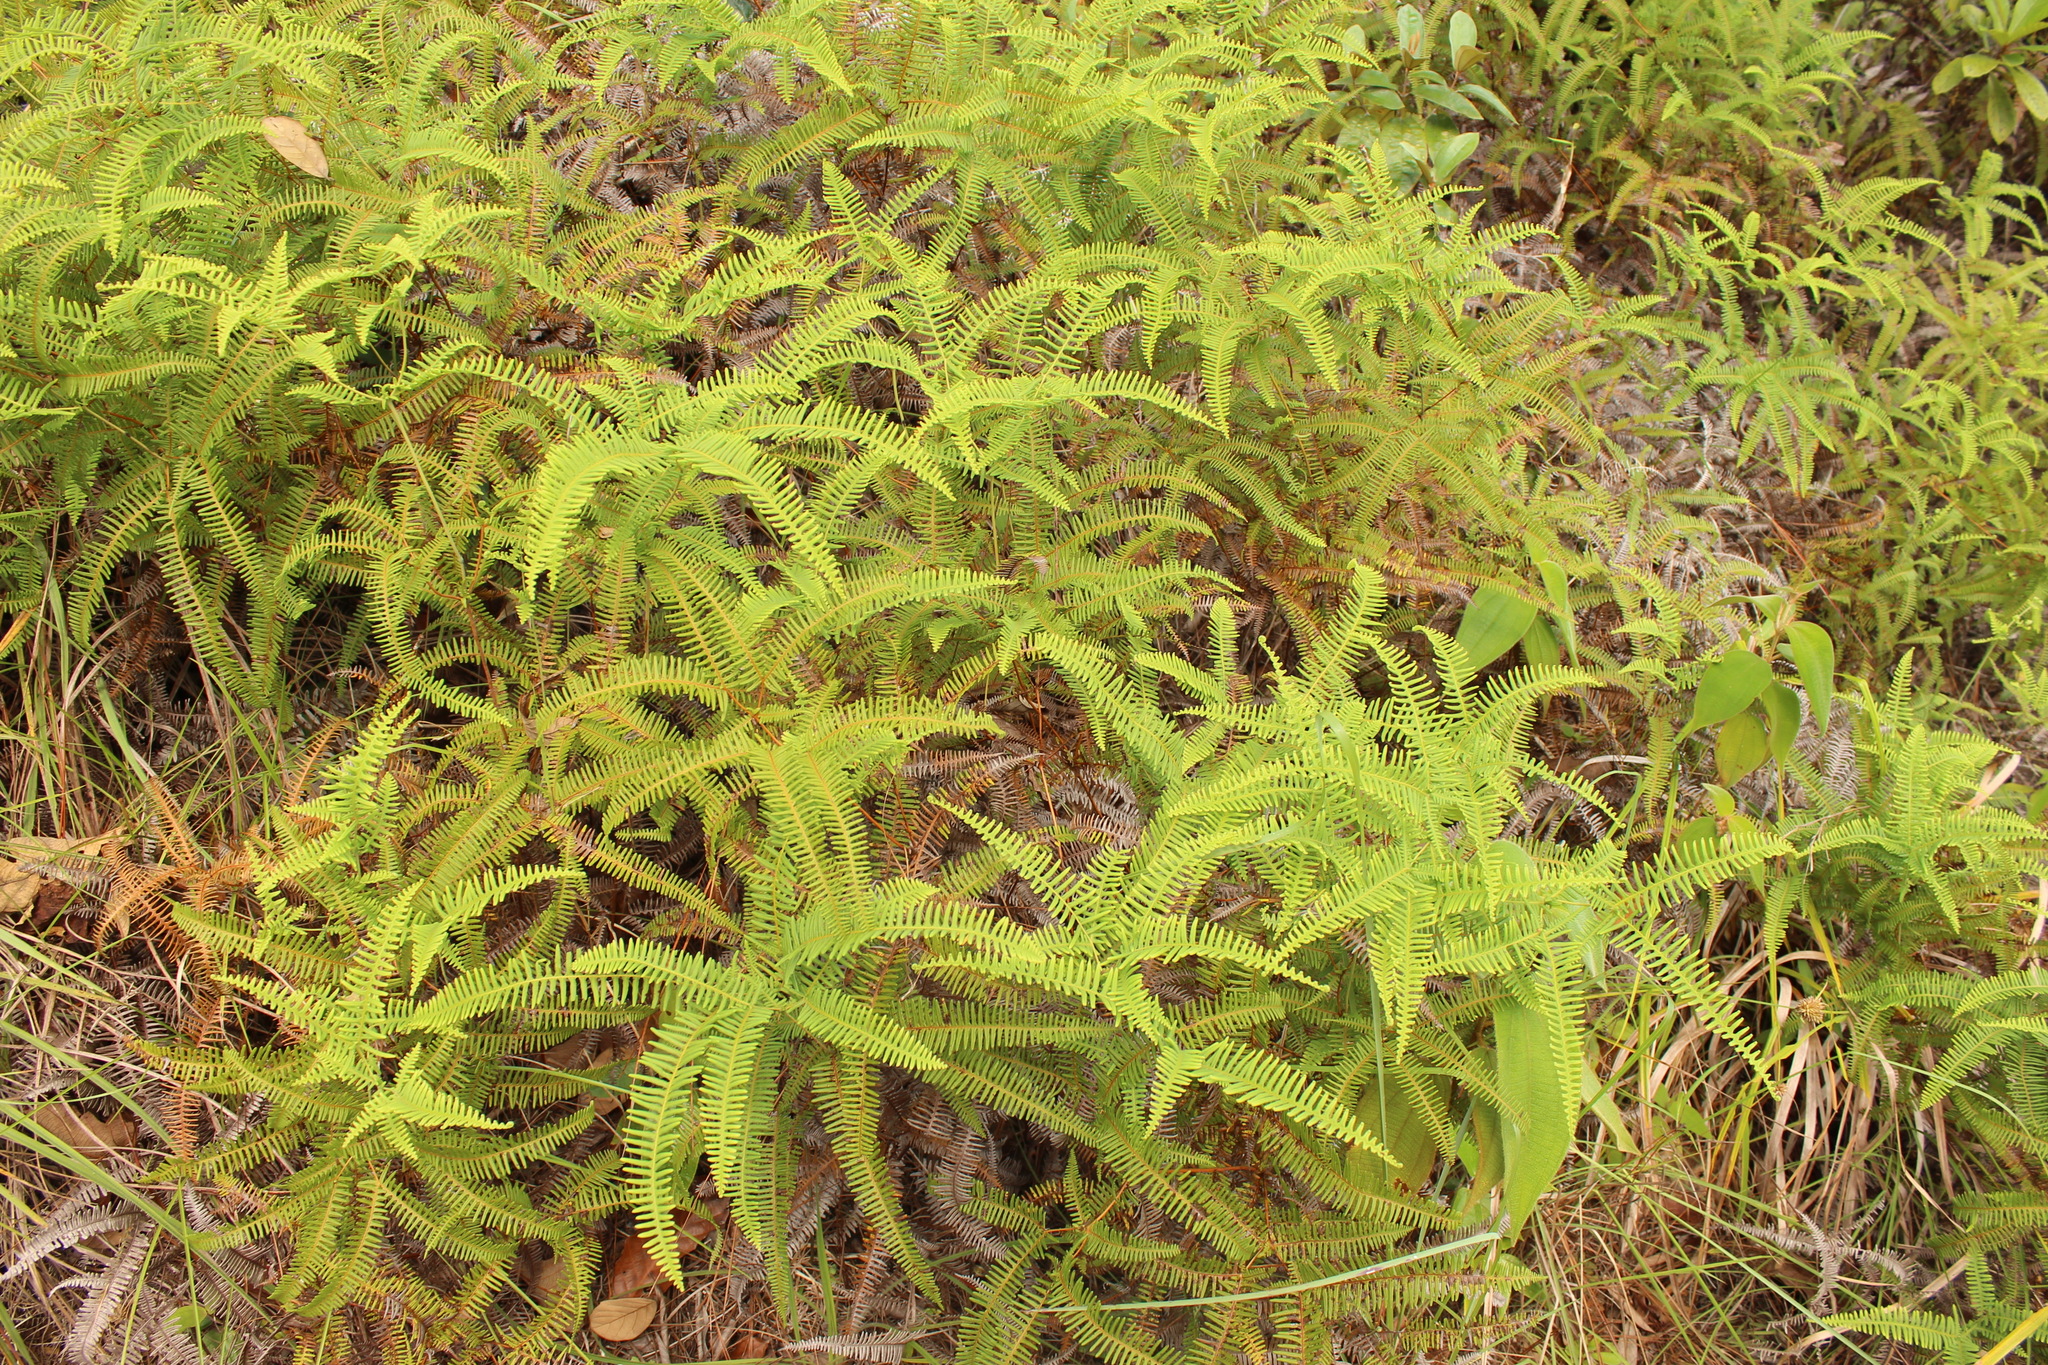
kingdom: Plantae
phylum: Tracheophyta
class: Polypodiopsida
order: Gleicheniales
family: Gleicheniaceae
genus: Gleichenella
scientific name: Gleichenella pectinata
